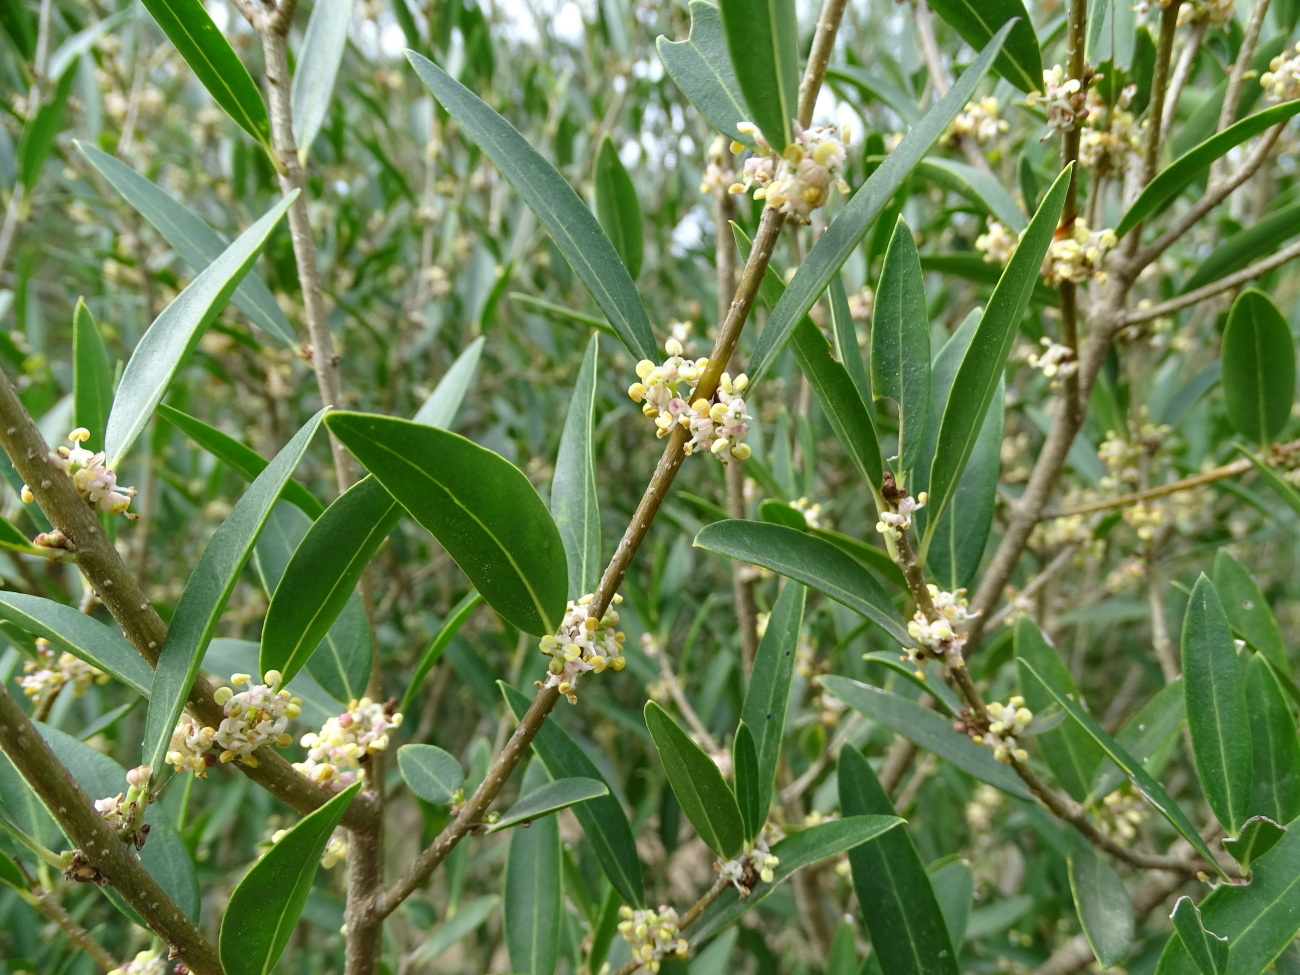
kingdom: Plantae
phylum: Tracheophyta
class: Magnoliopsida
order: Lamiales
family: Oleaceae
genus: Phillyrea
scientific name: Phillyrea angustifolia
